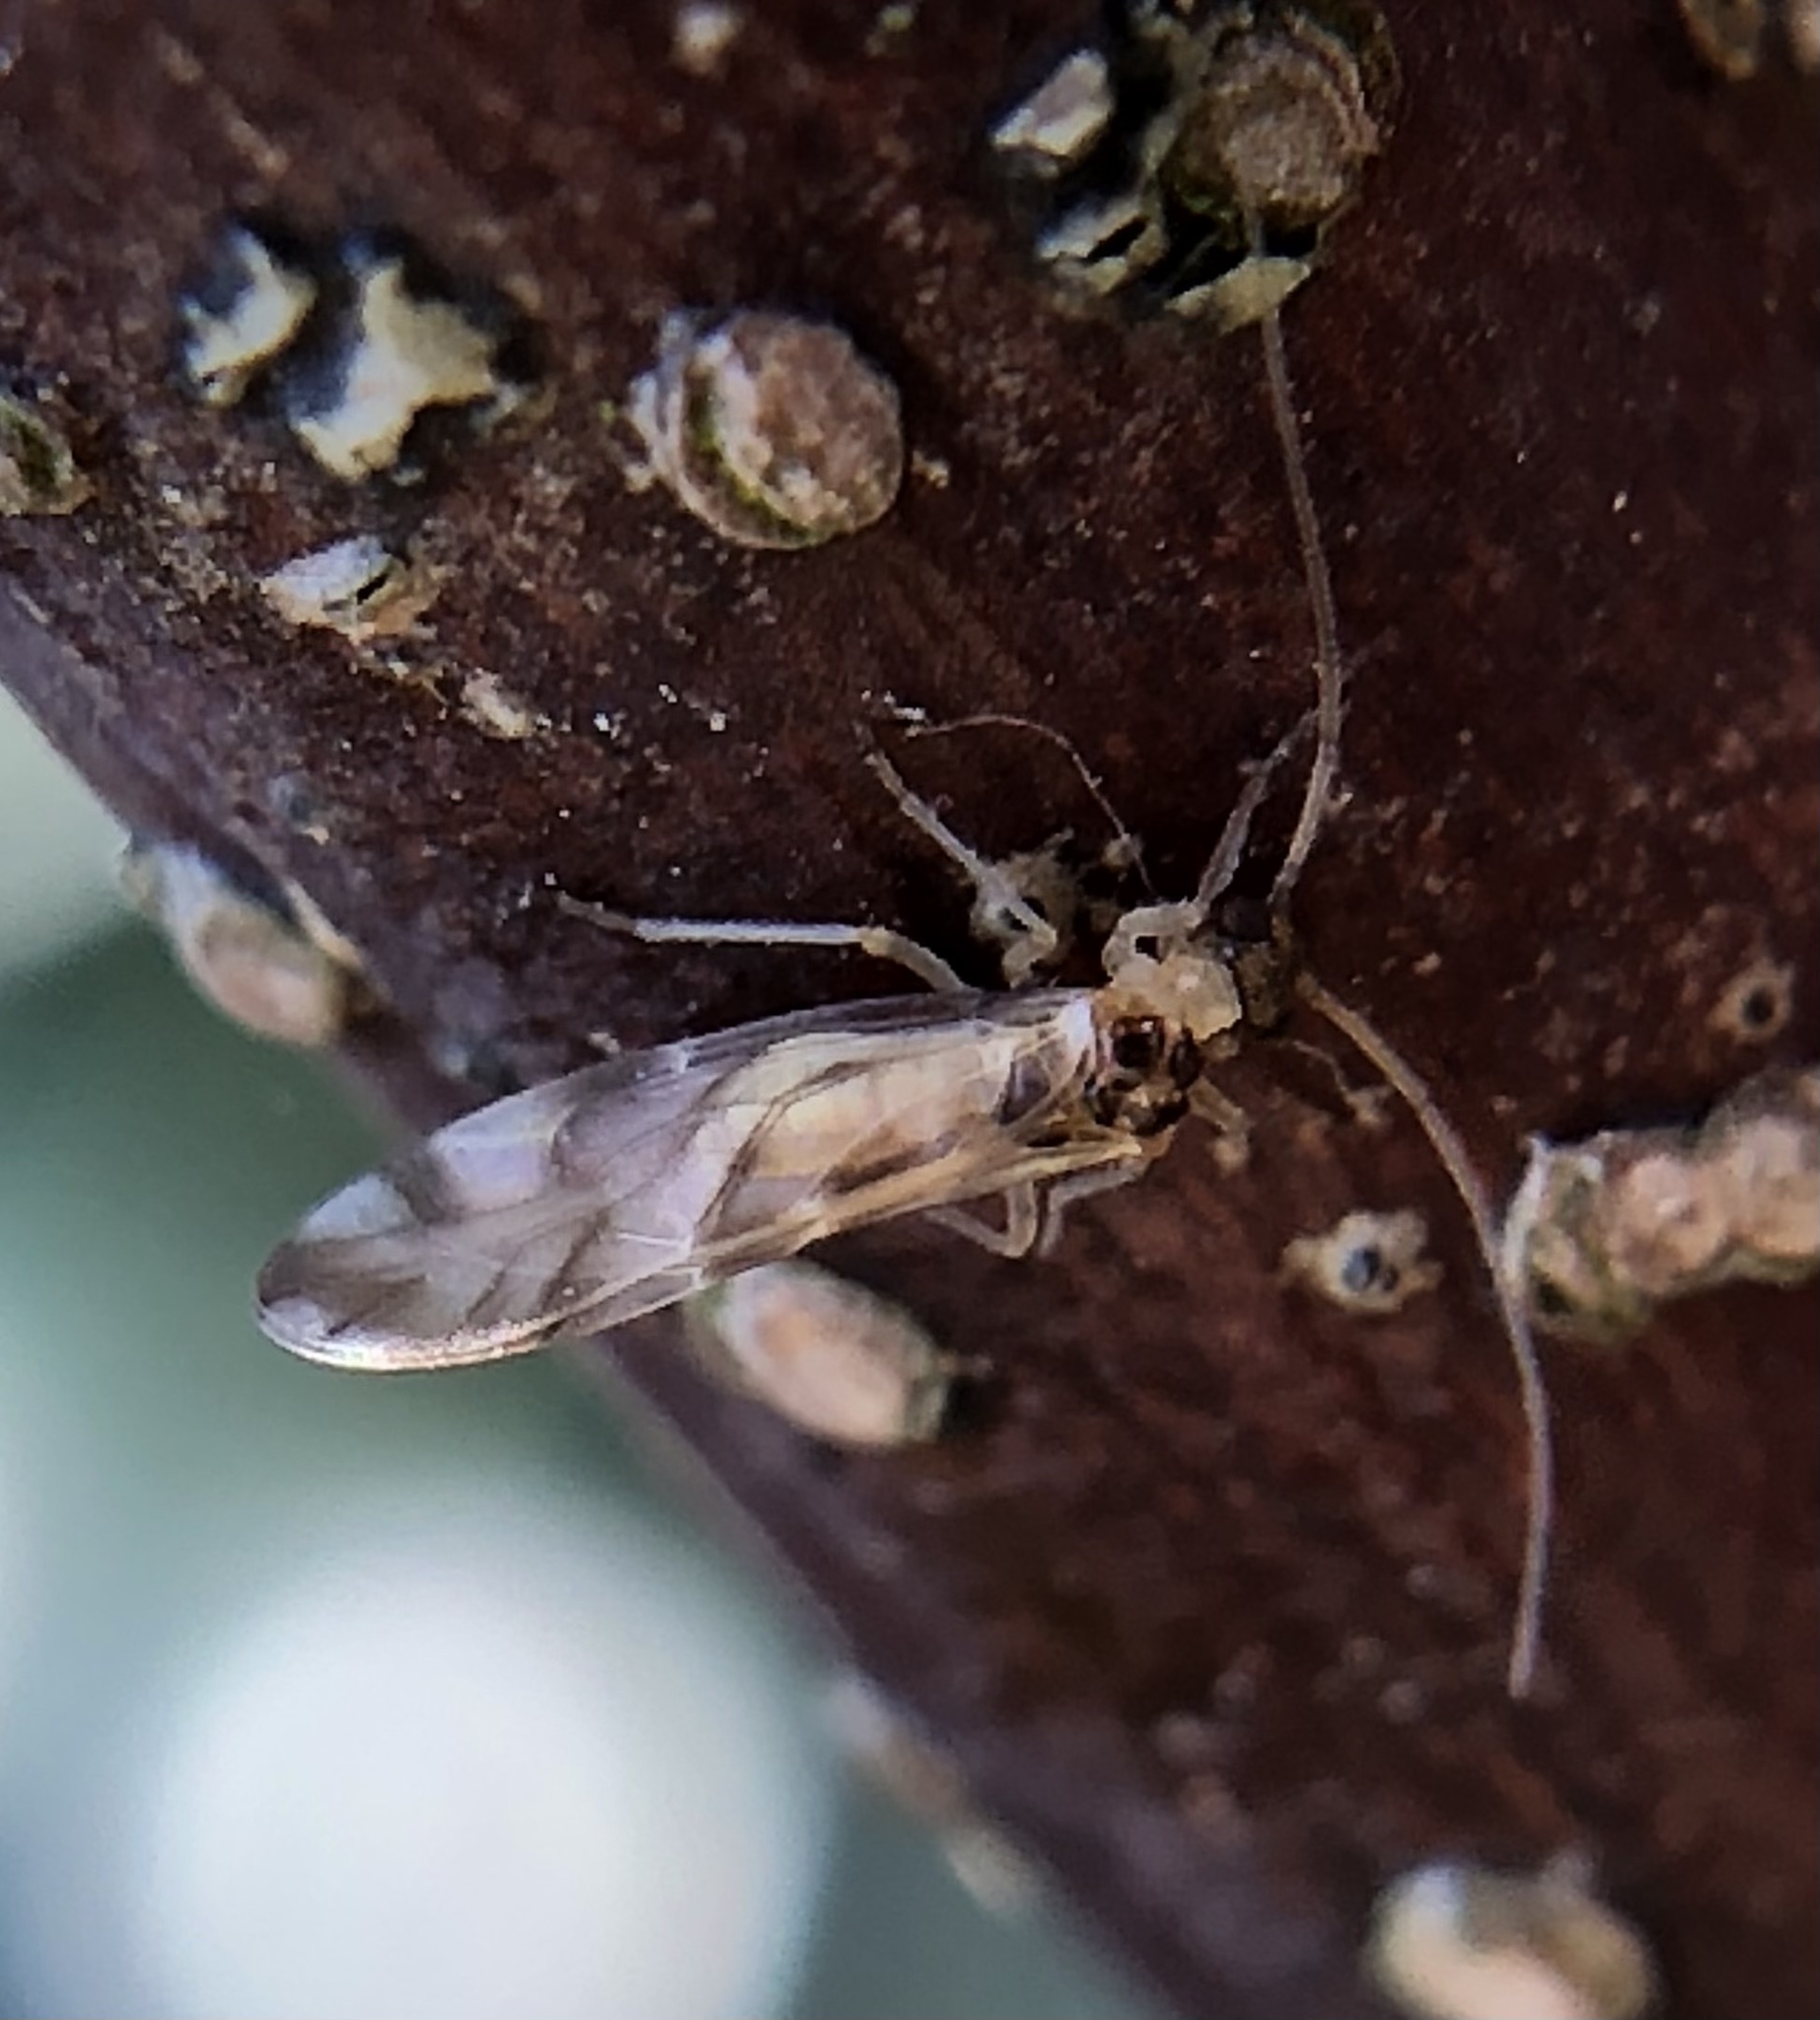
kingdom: Animalia
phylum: Arthropoda
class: Insecta
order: Psocodea
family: Stenopsocidae
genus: Graphopsocus
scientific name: Graphopsocus cruciatus
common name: Lizard bark louse
